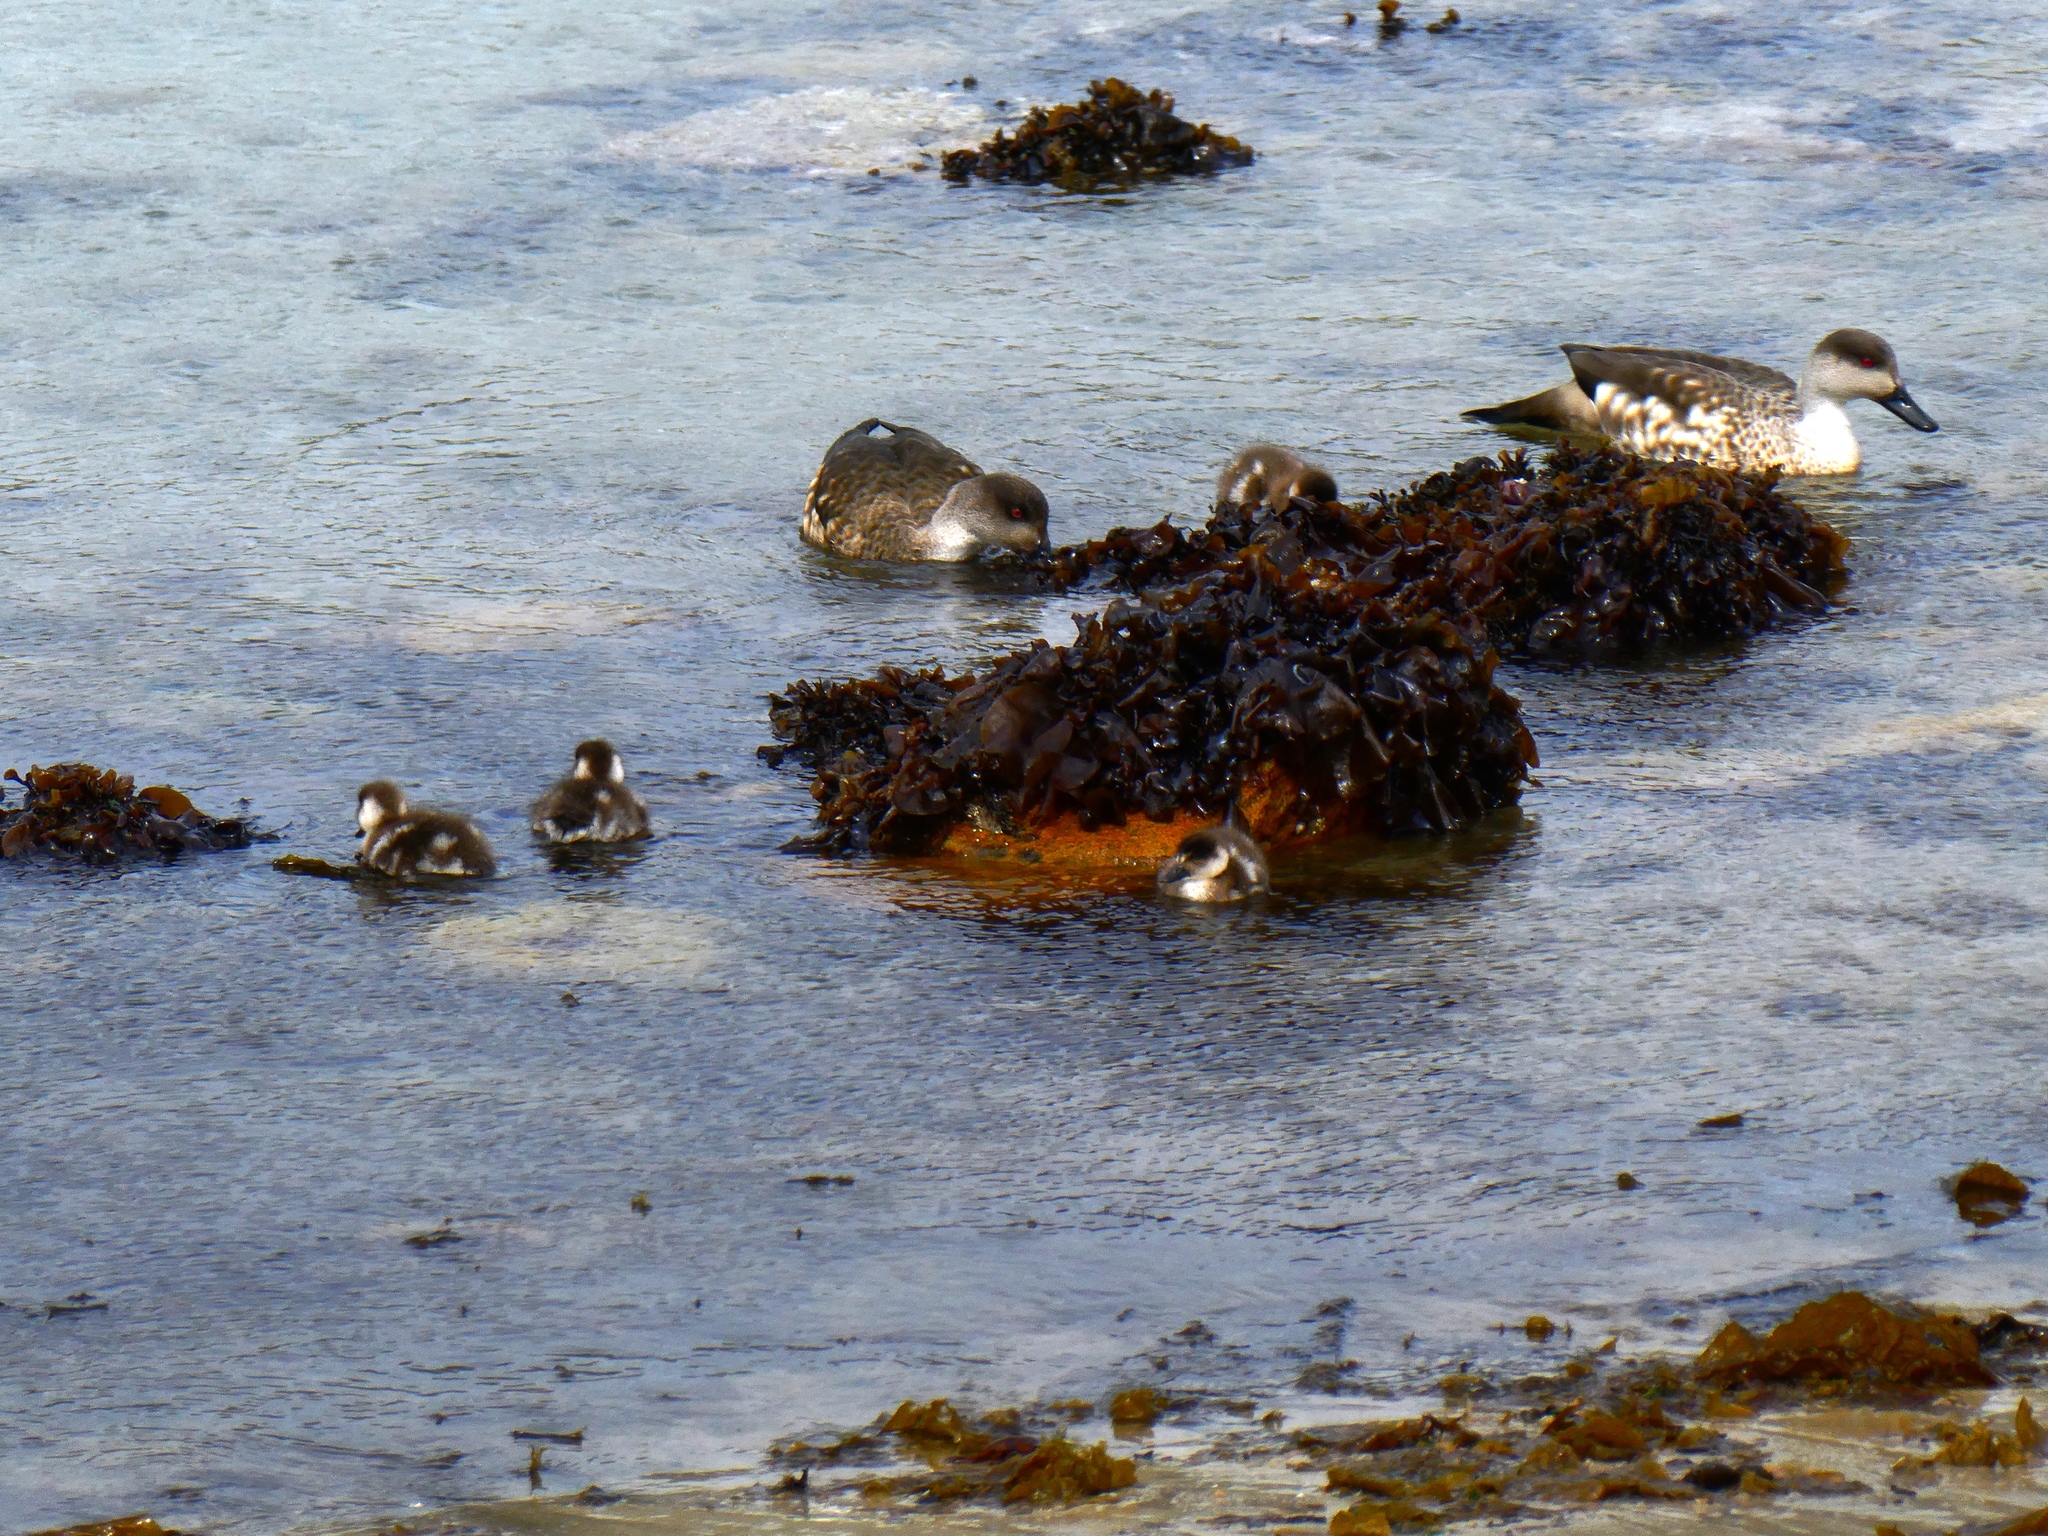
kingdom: Animalia
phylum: Chordata
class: Aves
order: Anseriformes
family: Anatidae
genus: Lophonetta
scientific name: Lophonetta specularioides
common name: Crested duck
